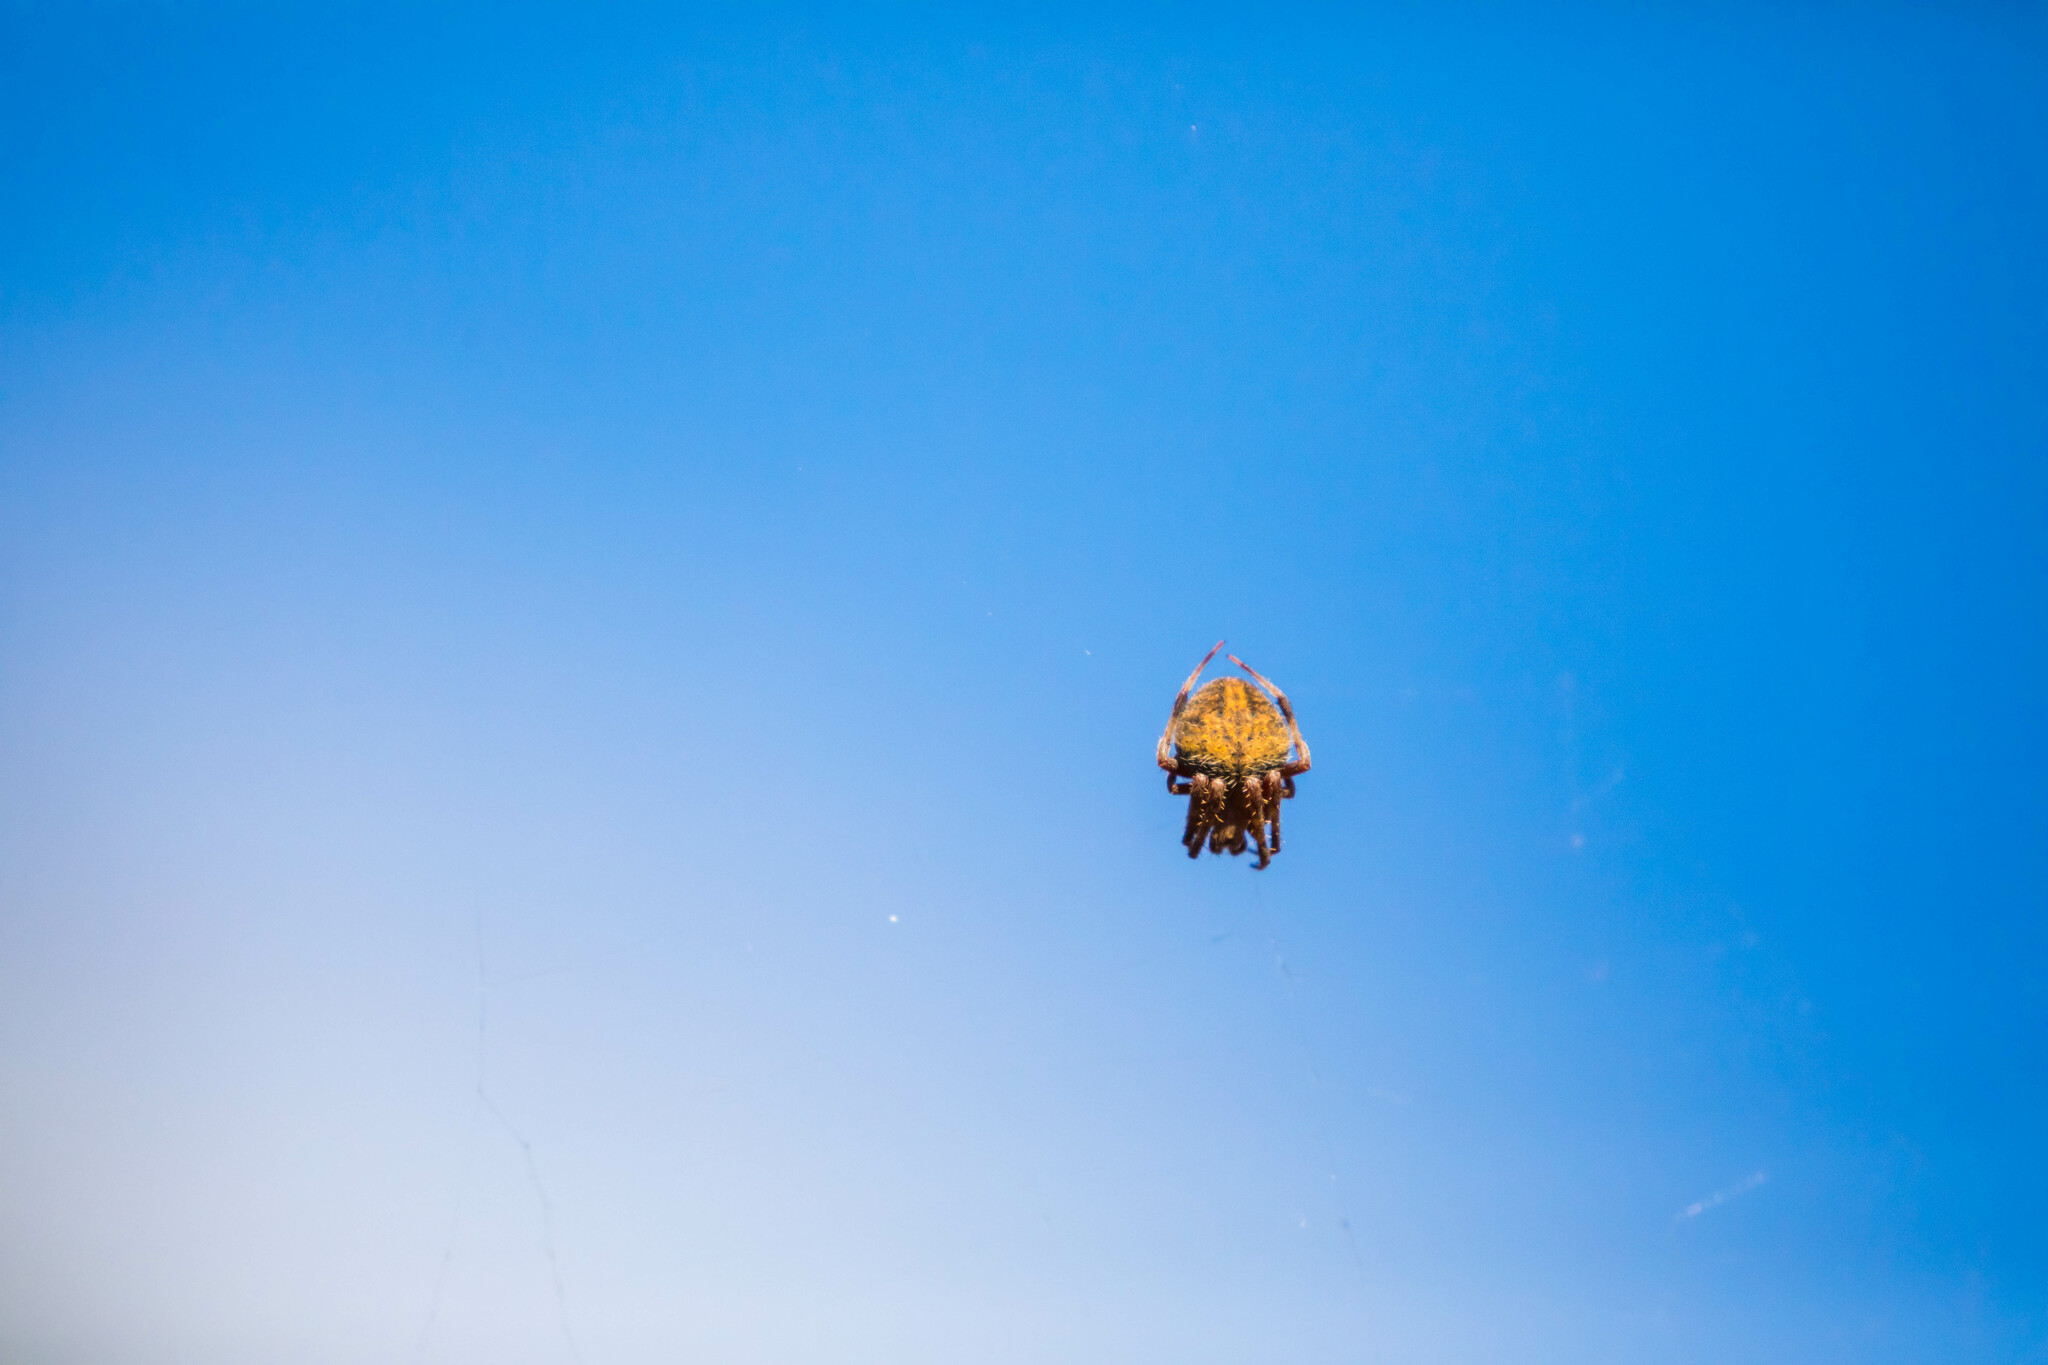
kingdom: Animalia
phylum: Arthropoda
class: Arachnida
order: Araneae
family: Araneidae
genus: Neoscona
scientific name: Neoscona crucifera
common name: Spotted orbweaver
